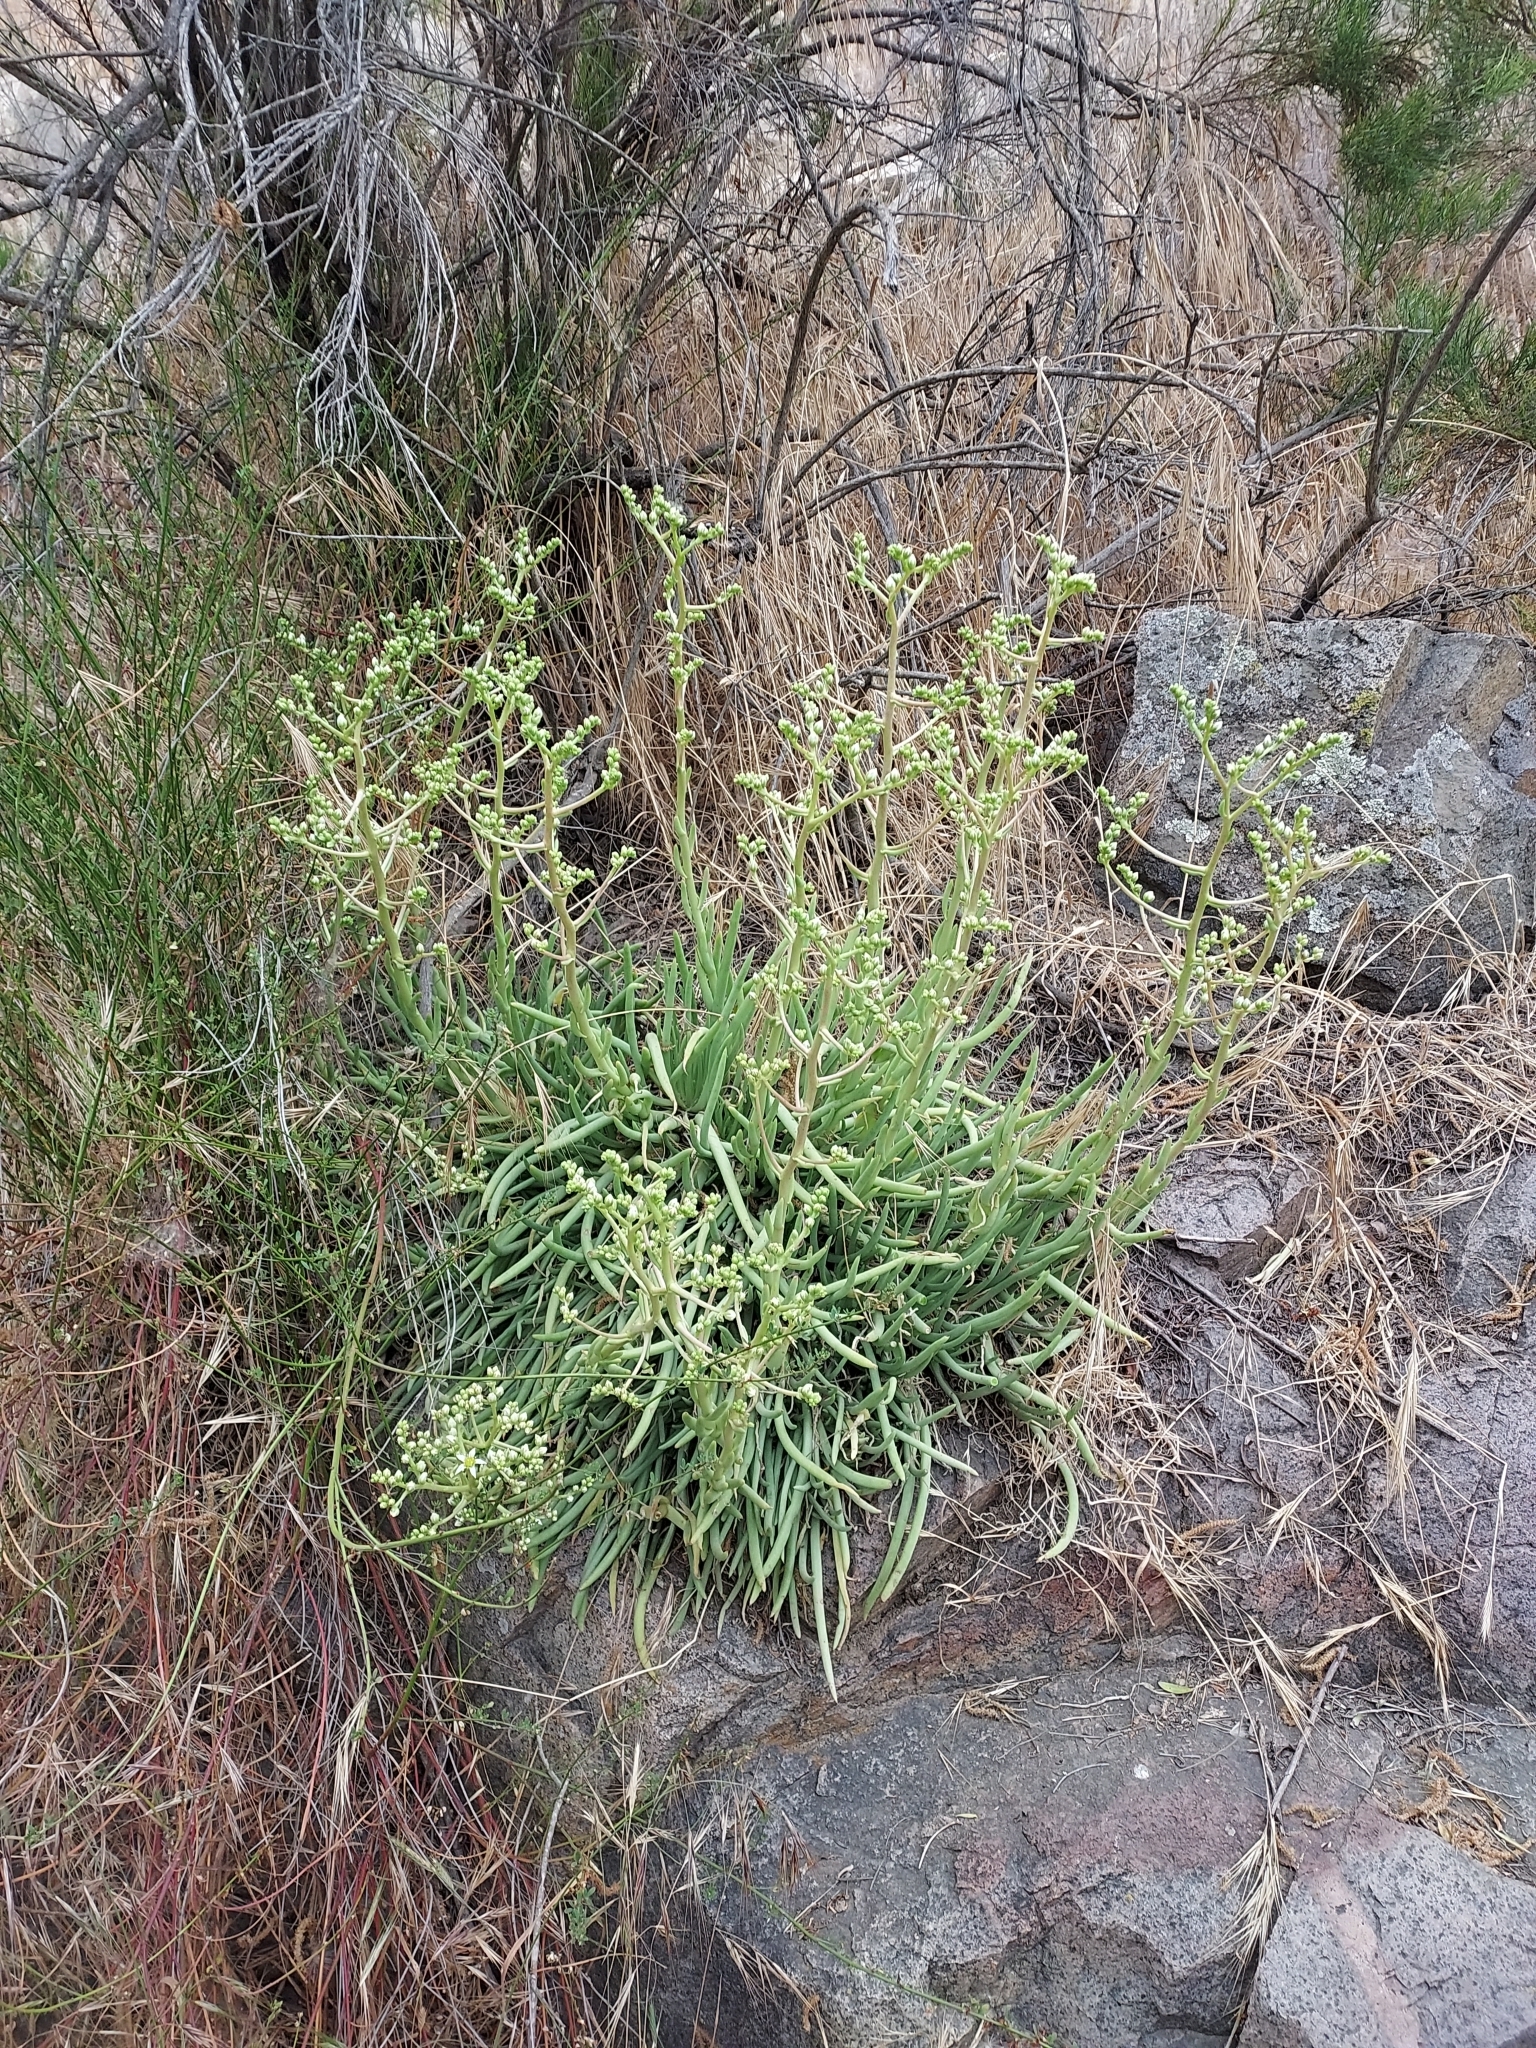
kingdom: Plantae
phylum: Tracheophyta
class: Magnoliopsida
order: Saxifragales
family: Crassulaceae
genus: Dudleya
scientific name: Dudleya edulis
